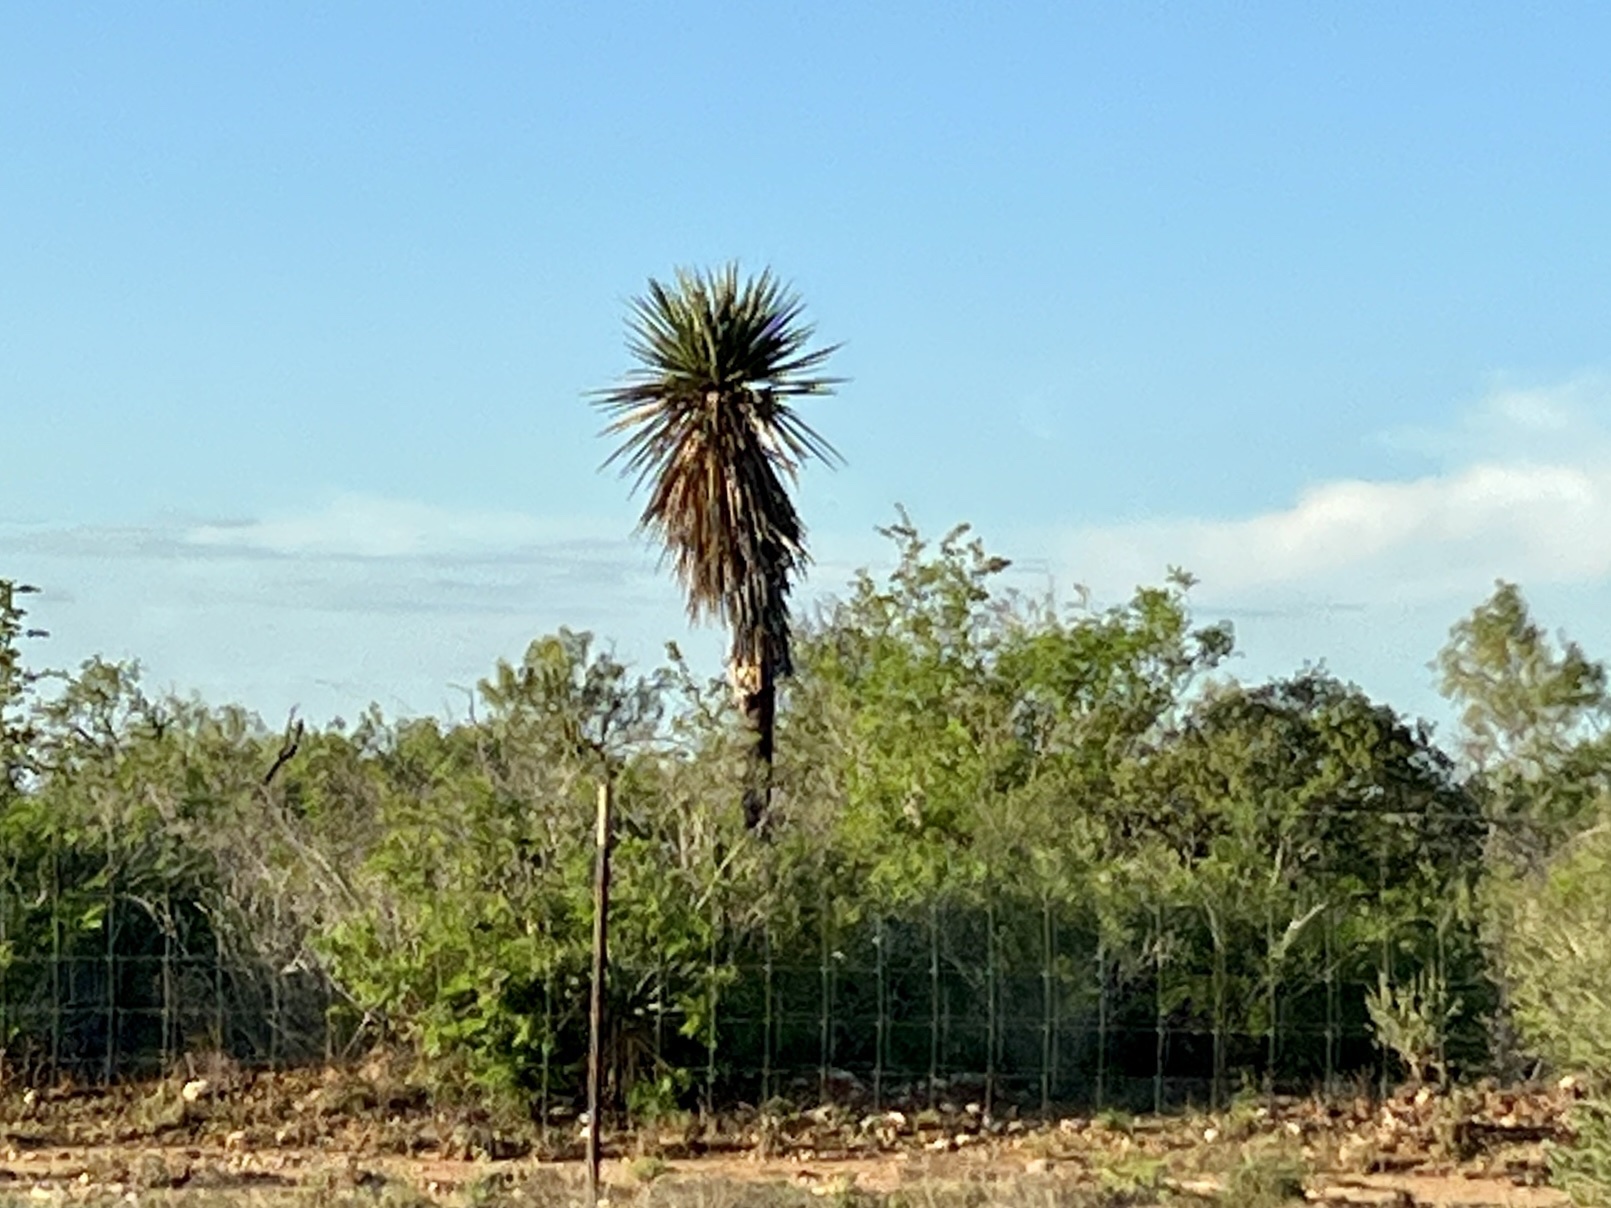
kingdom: Plantae
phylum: Tracheophyta
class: Liliopsida
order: Asparagales
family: Asparagaceae
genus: Yucca
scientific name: Yucca treculiana
